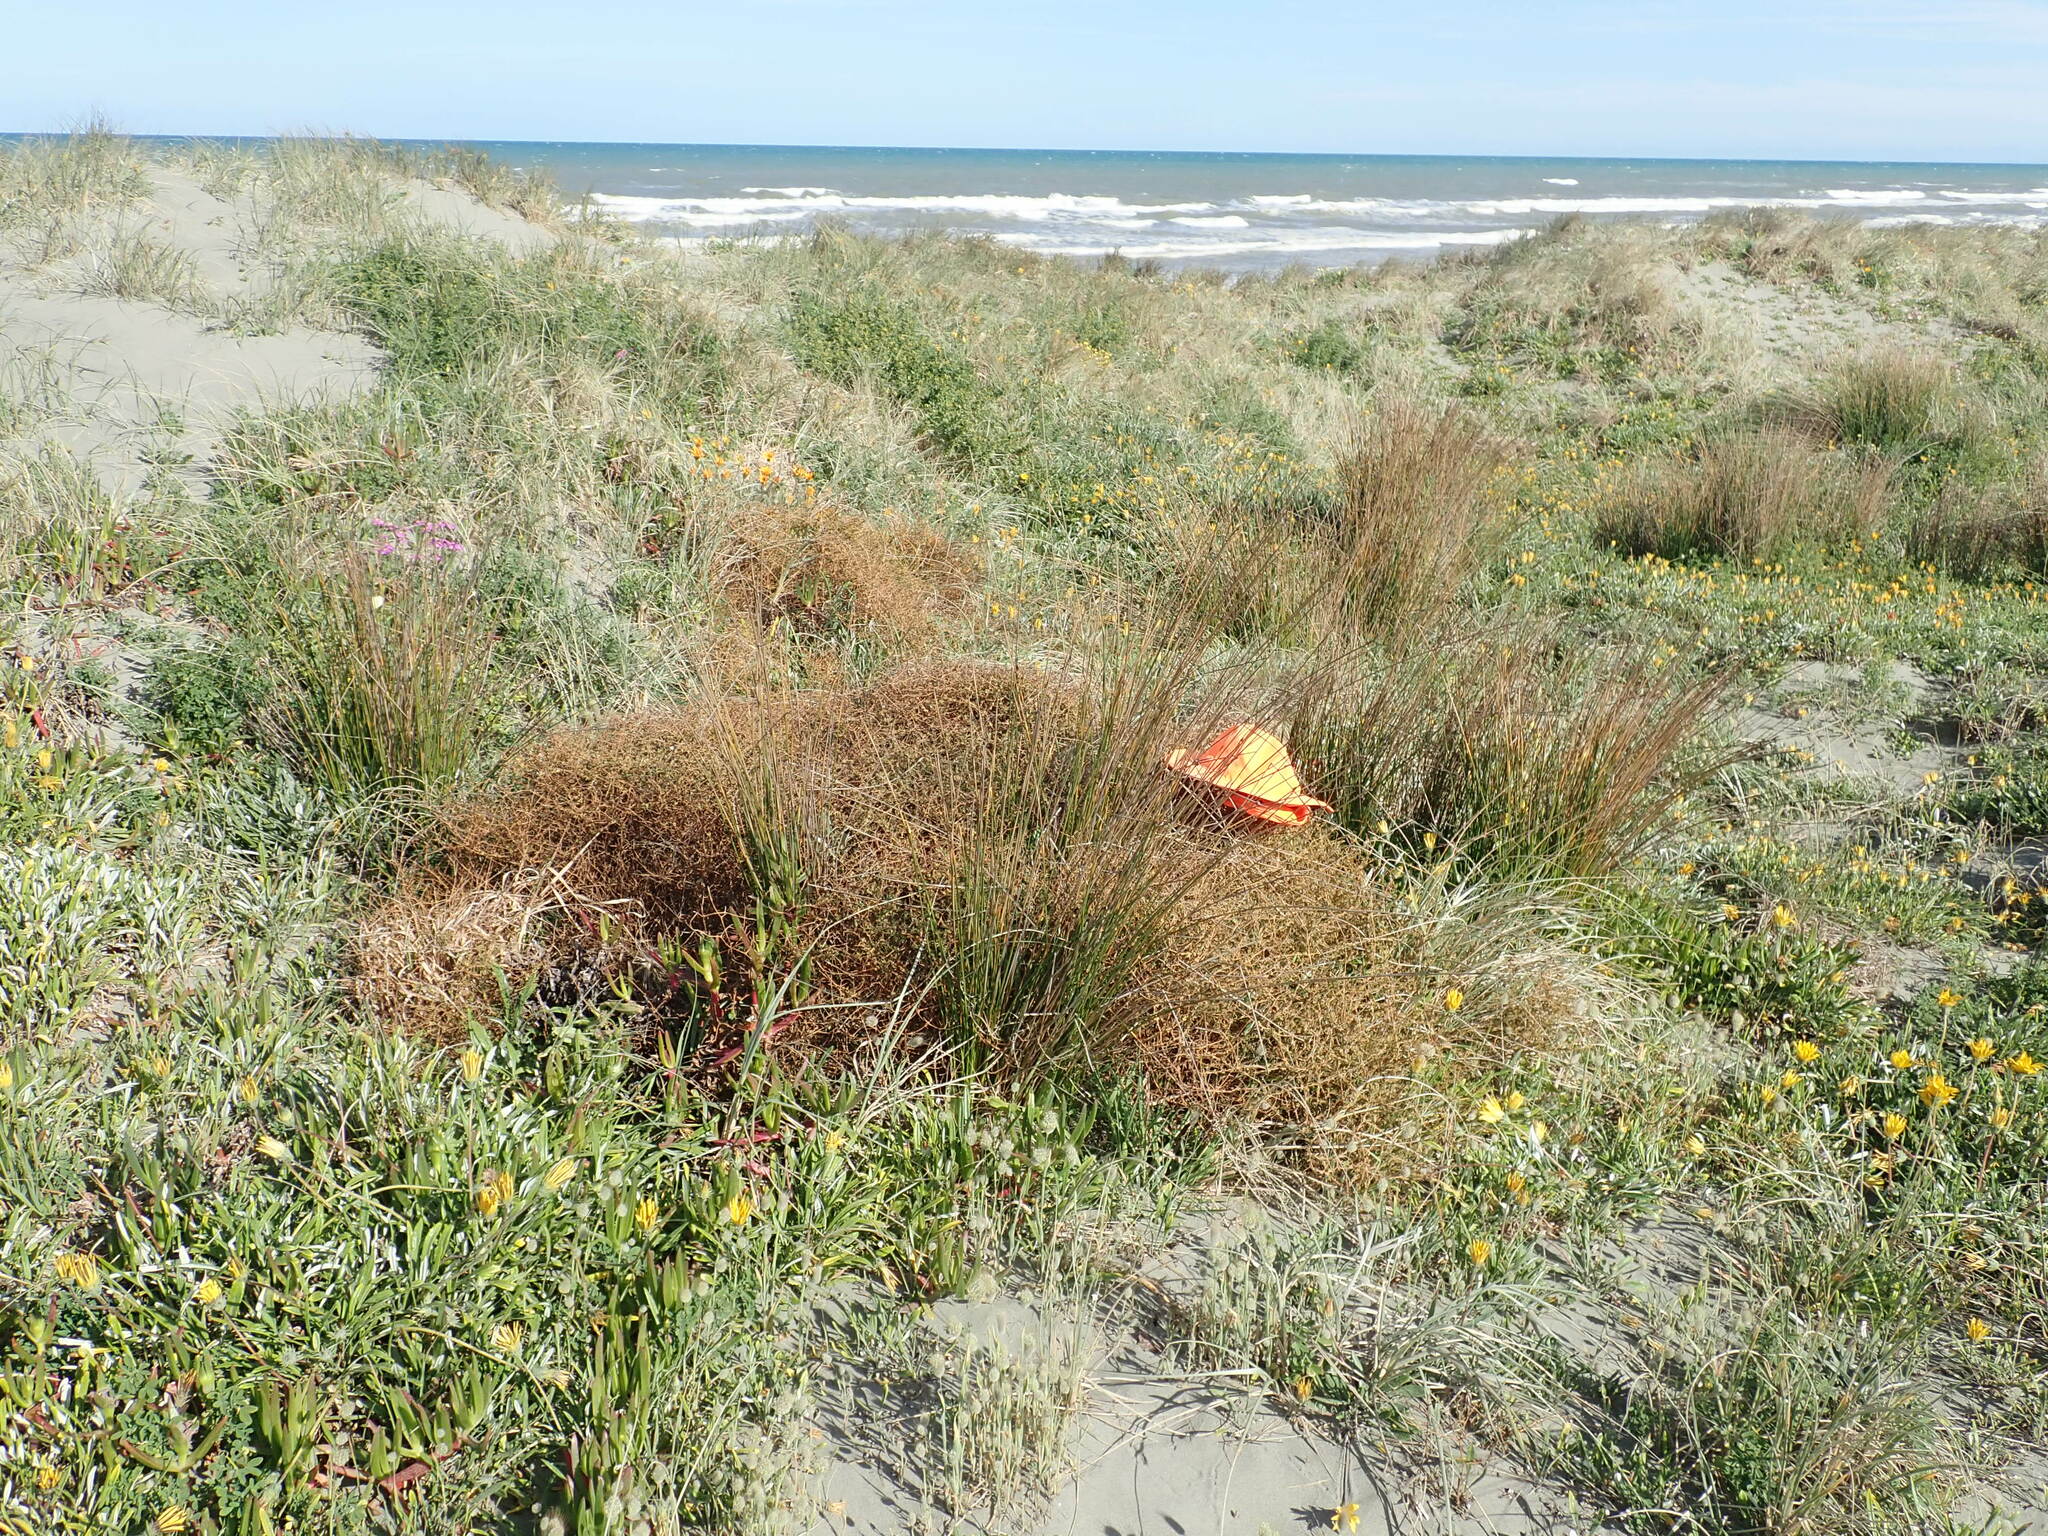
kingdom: Plantae
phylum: Tracheophyta
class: Magnoliopsida
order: Gentianales
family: Rubiaceae
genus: Coprosma
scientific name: Coprosma acerosa
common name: Sand coprosma
